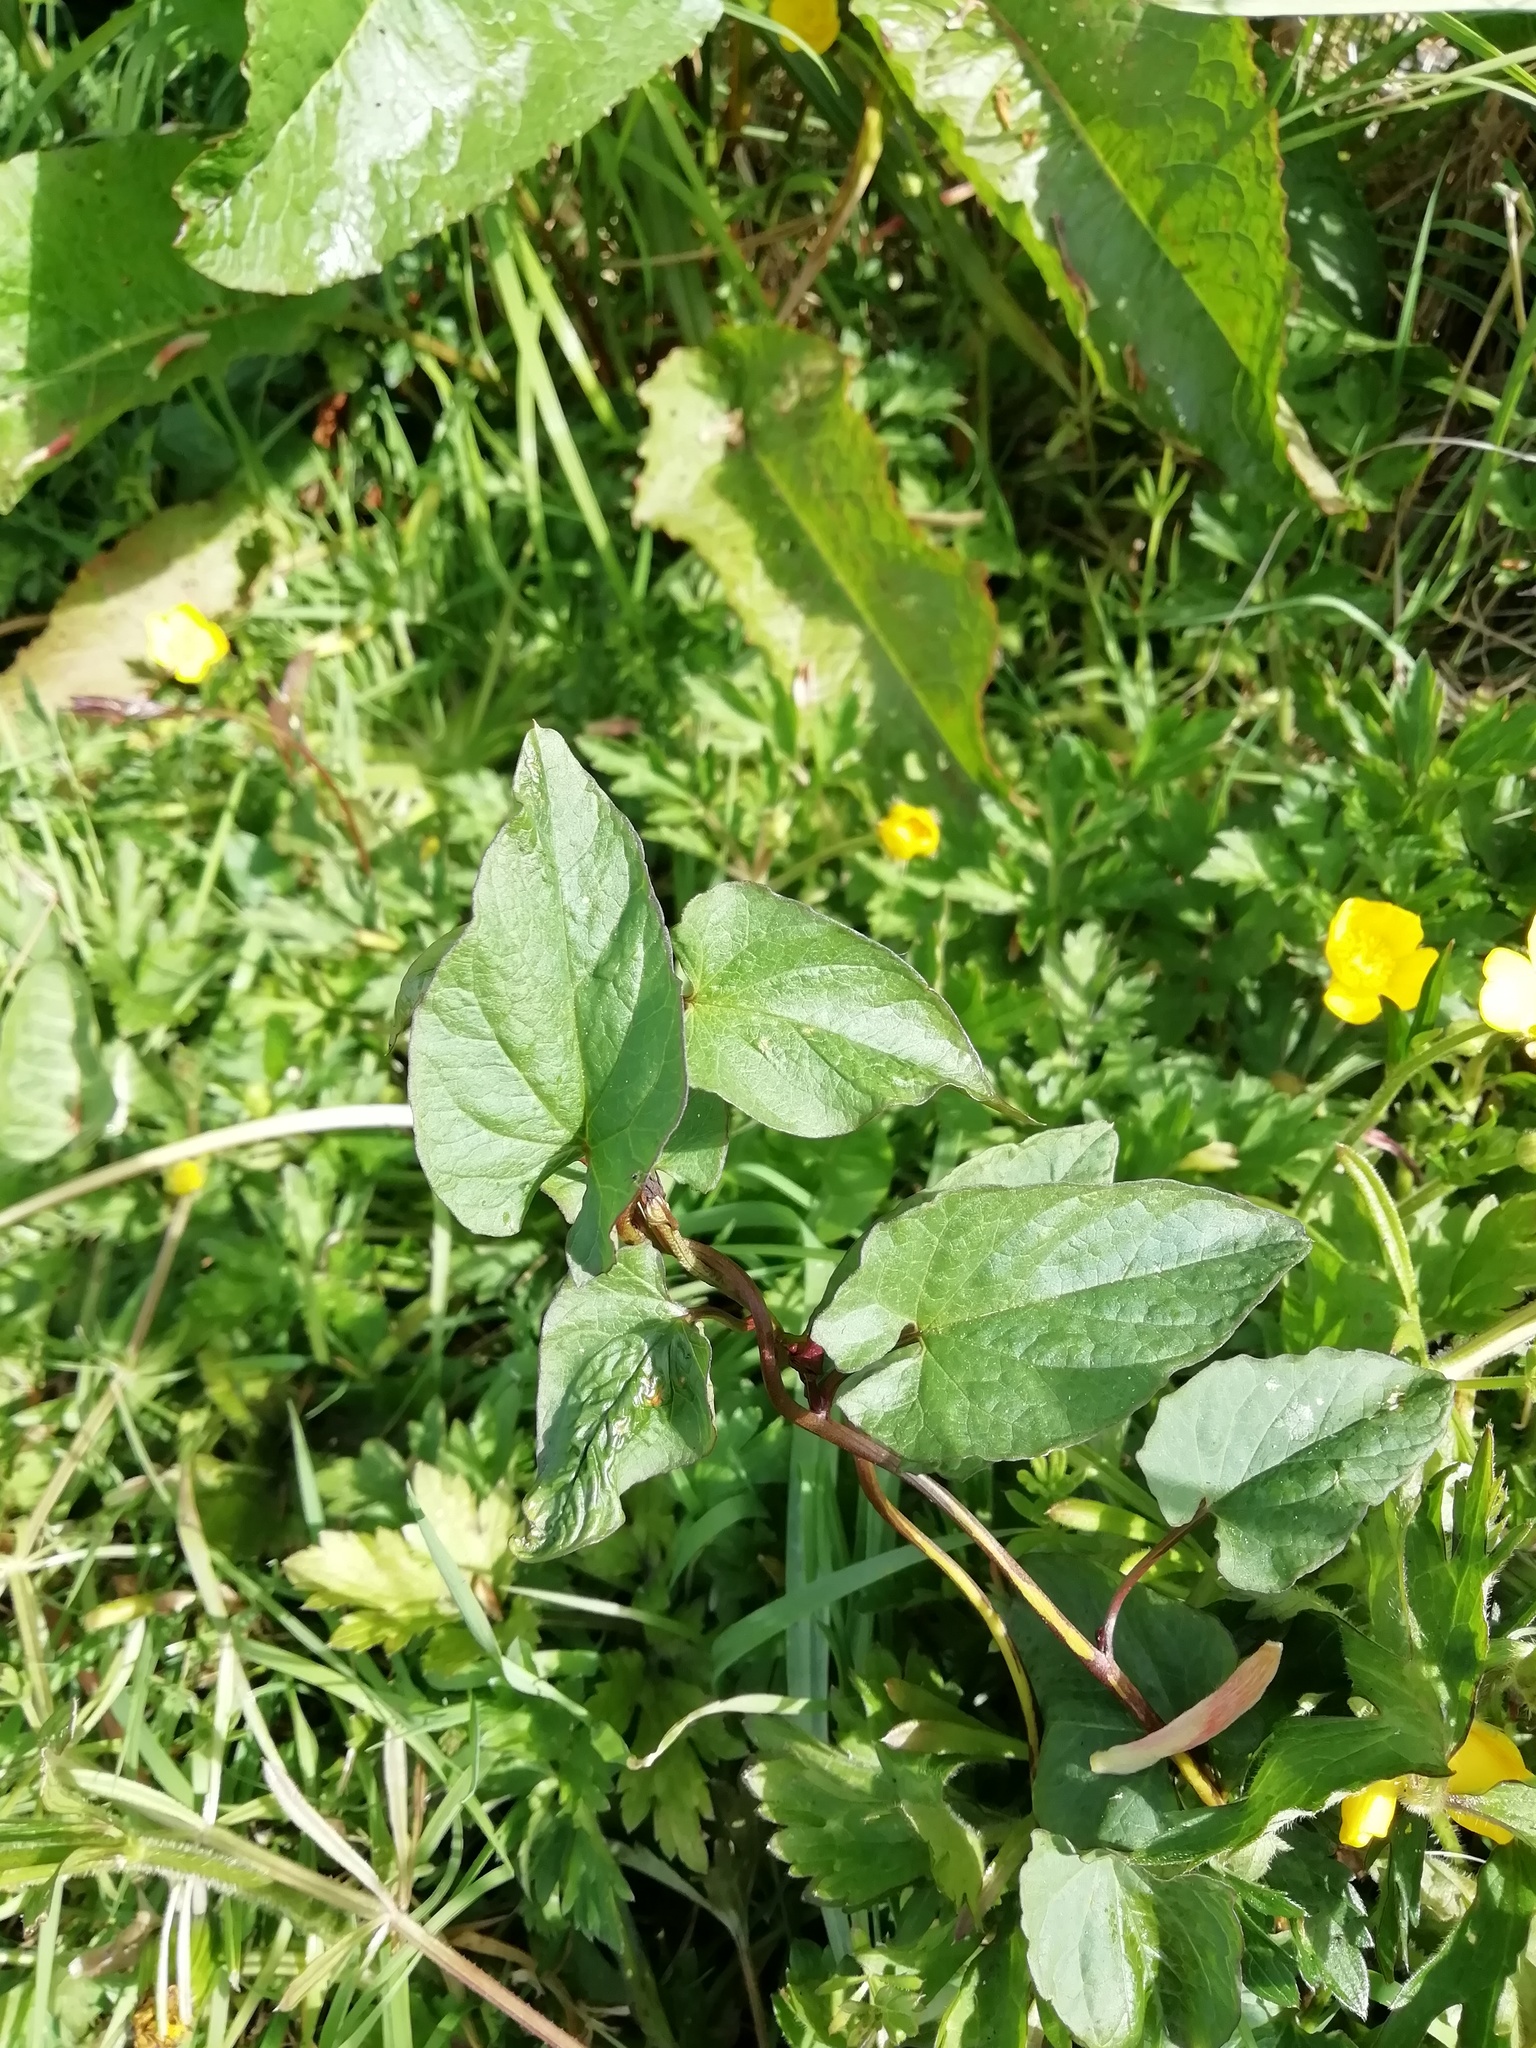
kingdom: Plantae
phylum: Tracheophyta
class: Magnoliopsida
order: Solanales
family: Convolvulaceae
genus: Calystegia
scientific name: Calystegia
